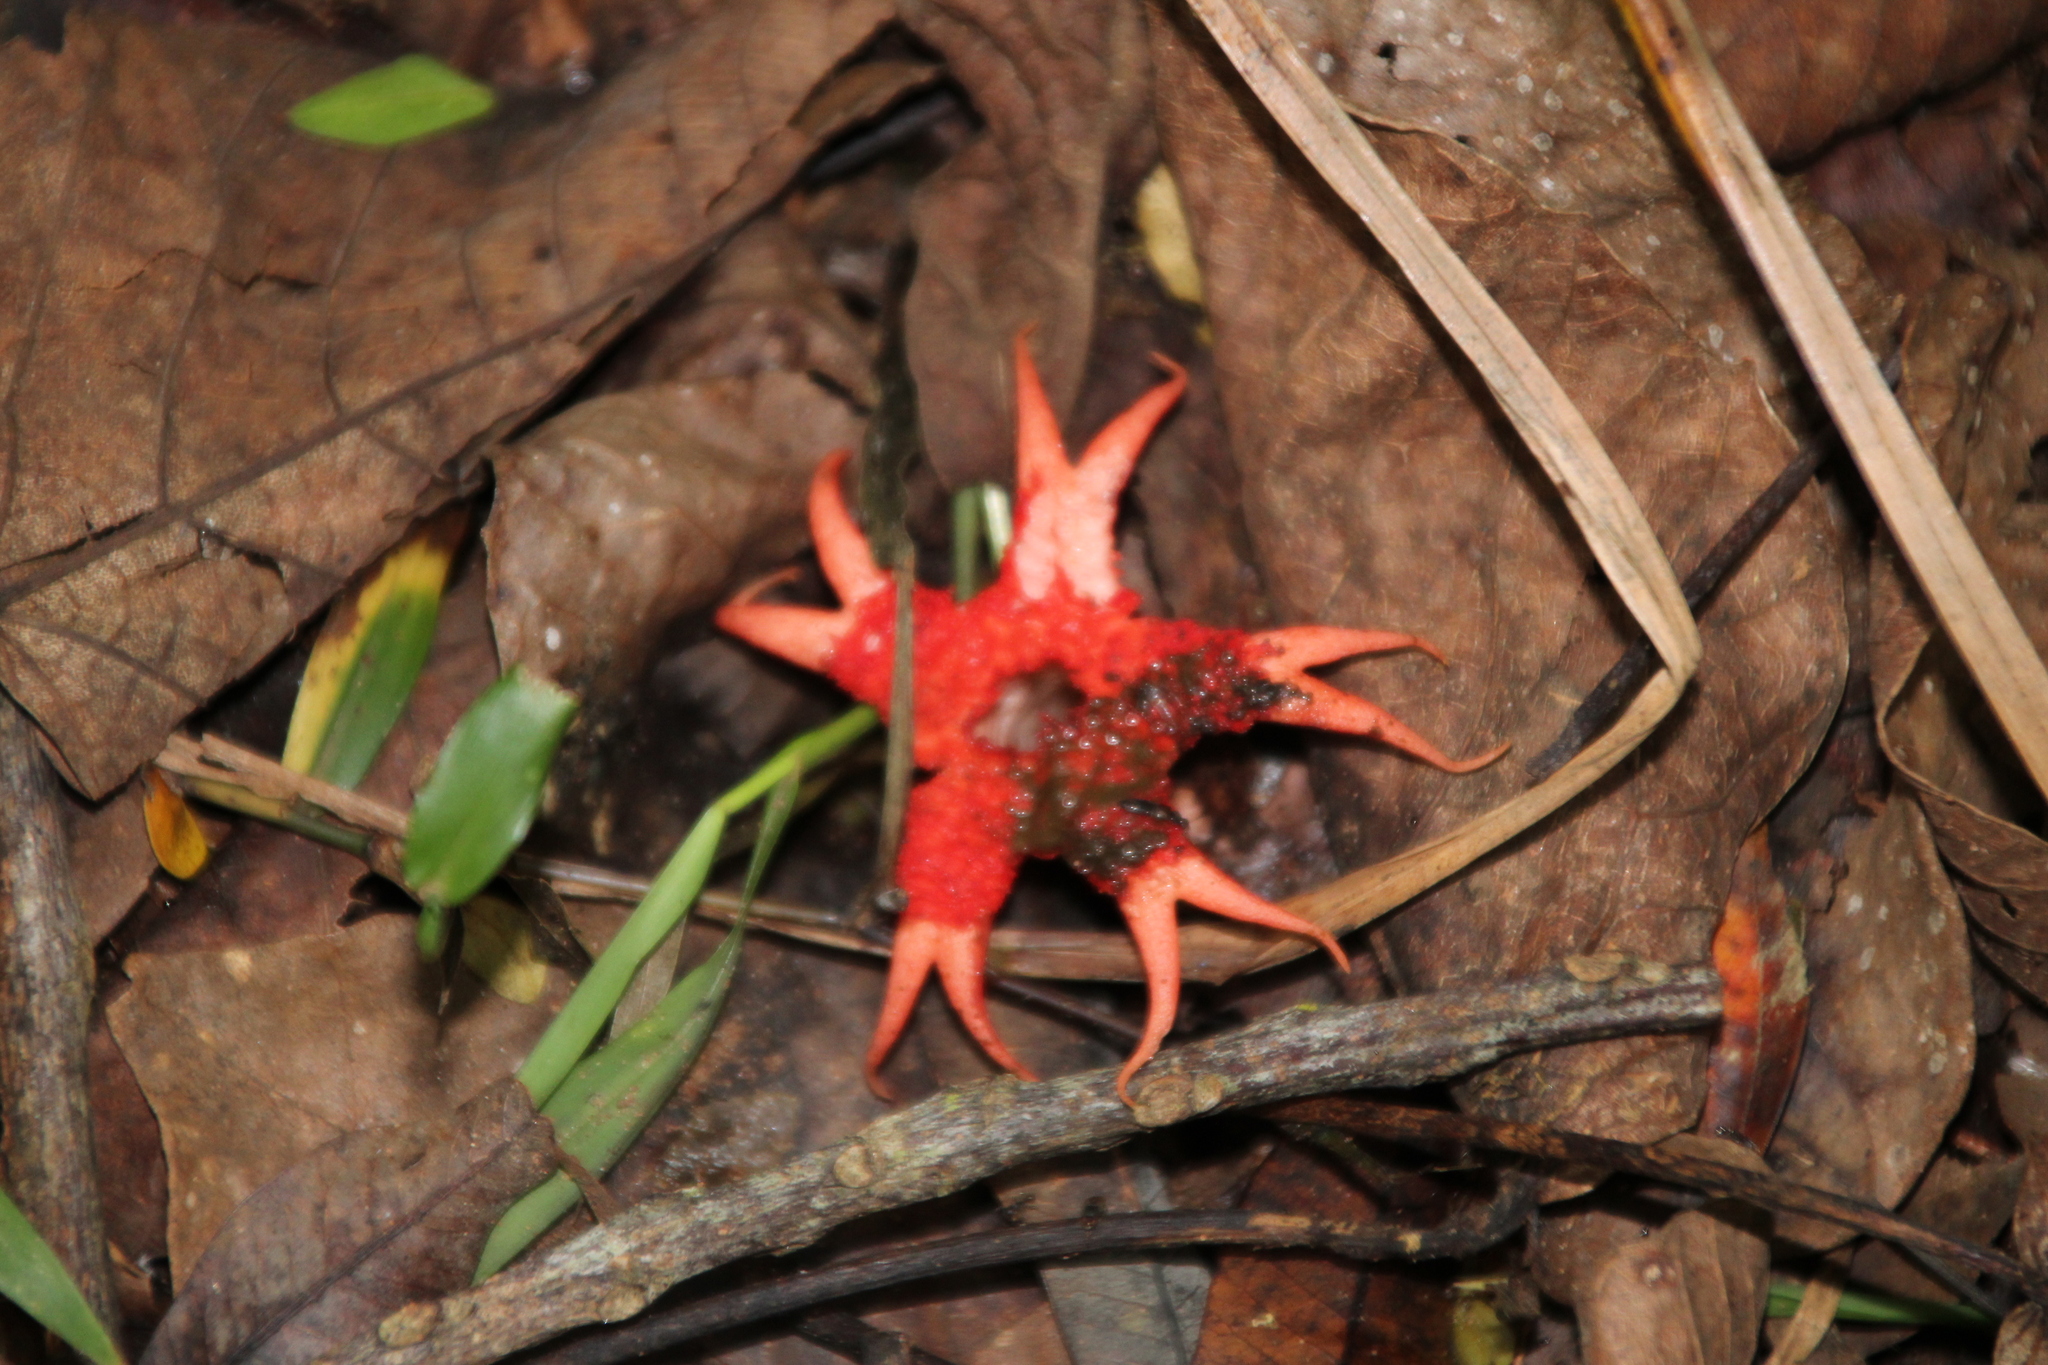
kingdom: Fungi
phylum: Basidiomycota
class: Agaricomycetes
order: Phallales
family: Phallaceae
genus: Aseroe
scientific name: Aseroe rubra
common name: Starfish fungus
